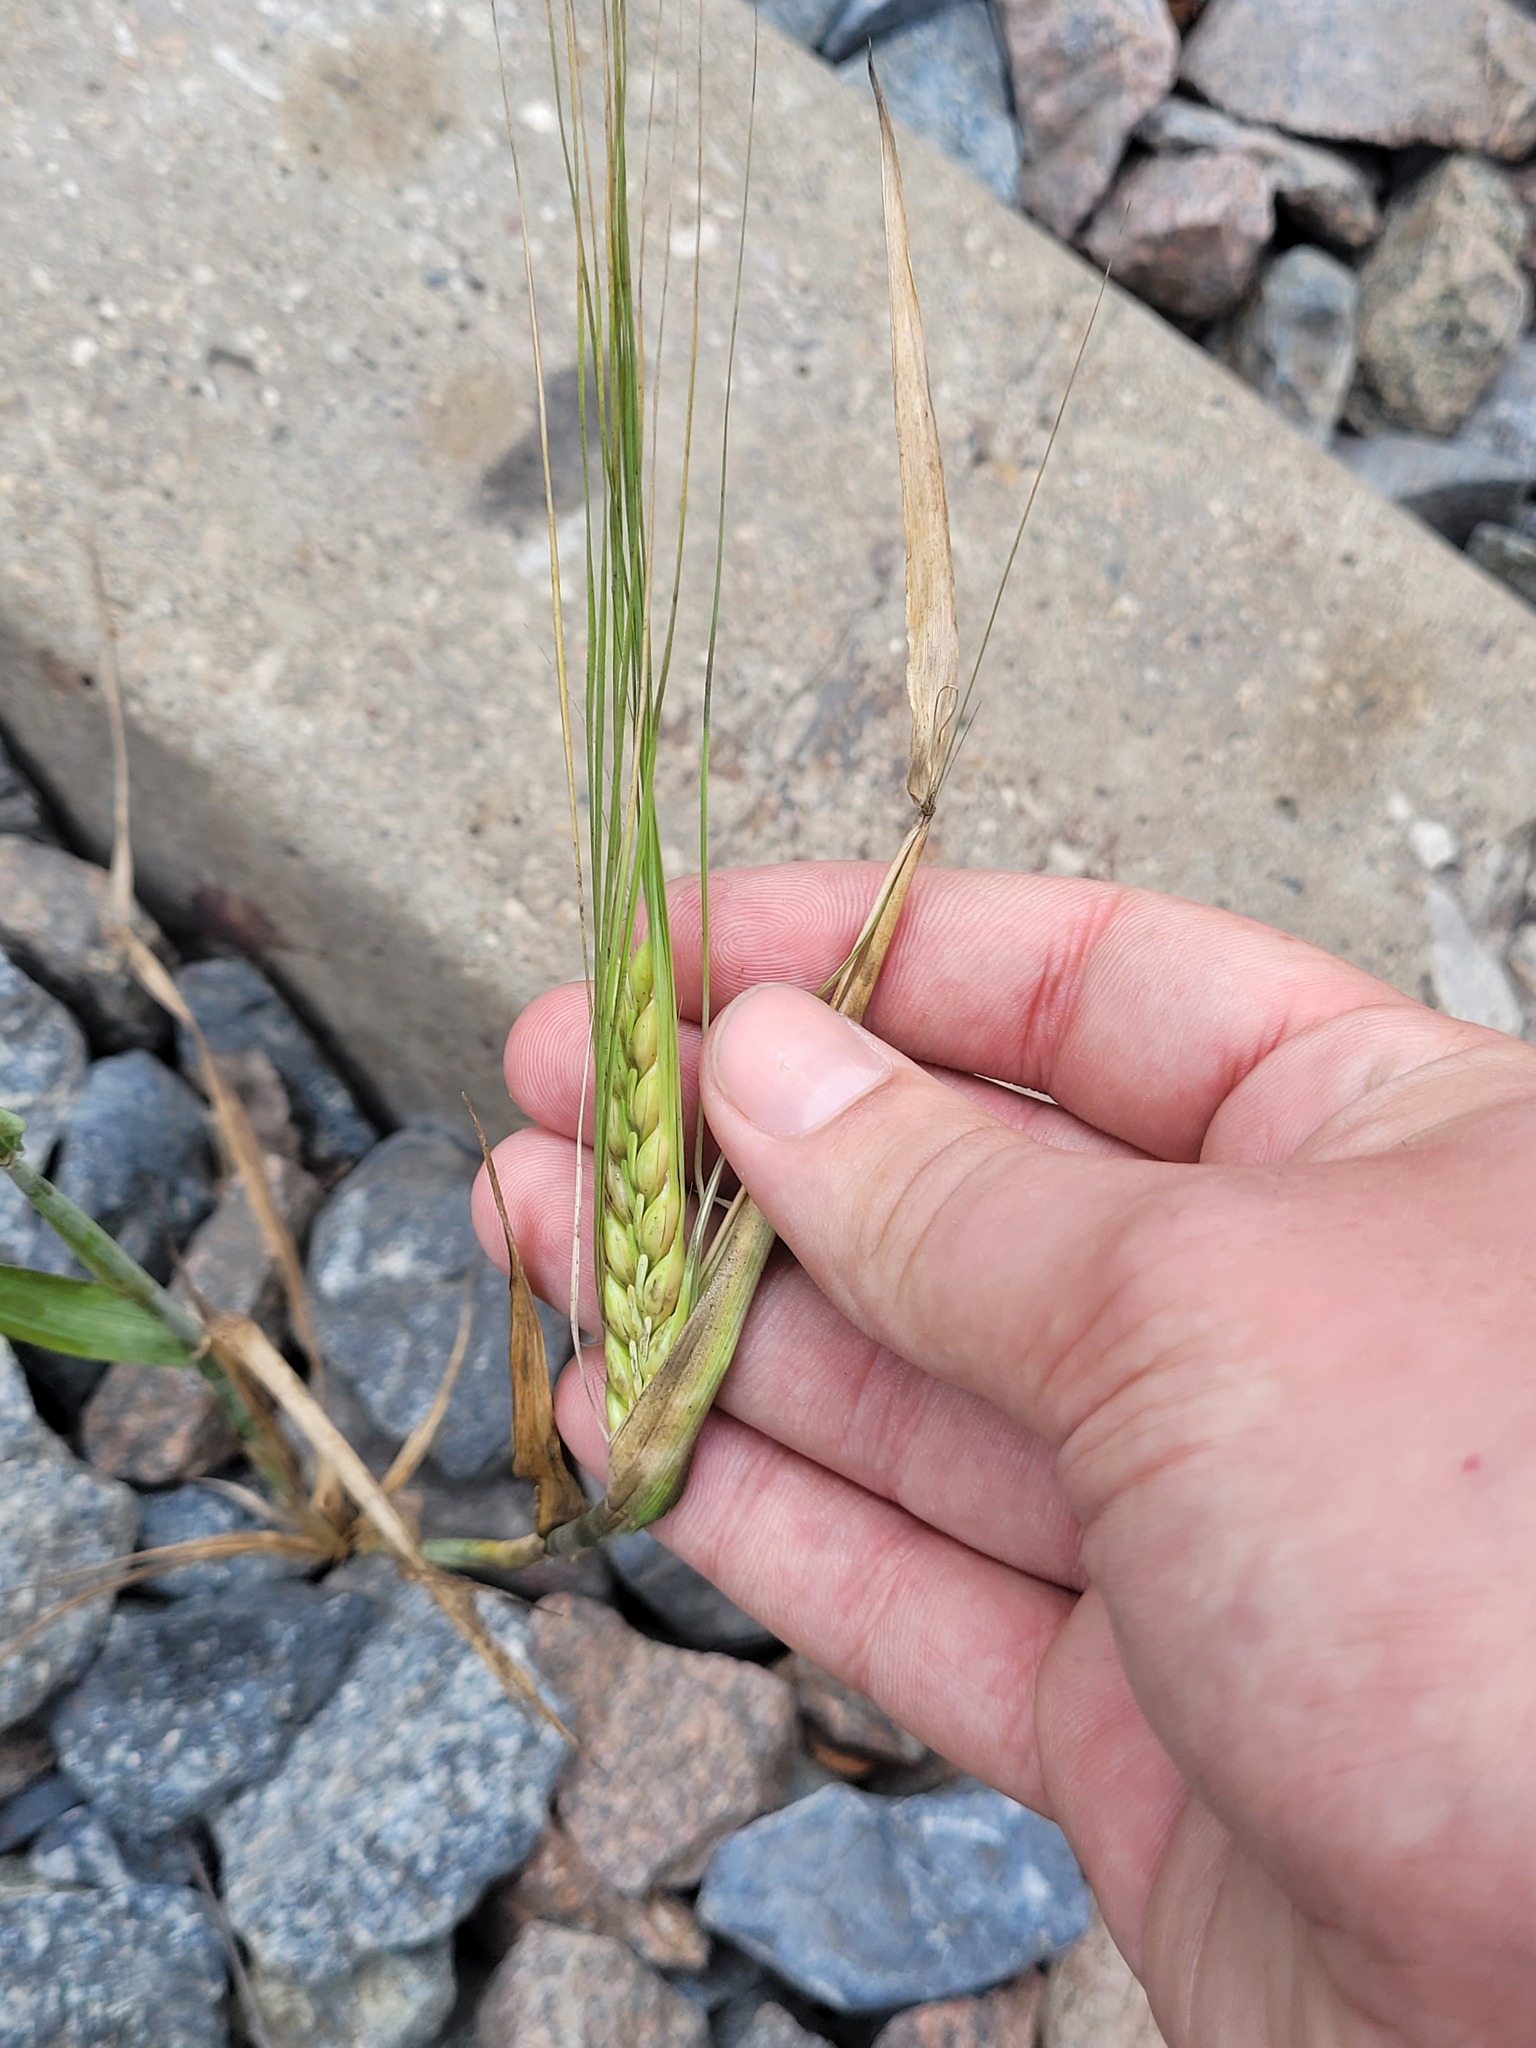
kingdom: Plantae
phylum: Tracheophyta
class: Liliopsida
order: Poales
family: Poaceae
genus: Hordeum
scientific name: Hordeum vulgare
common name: Common barley
